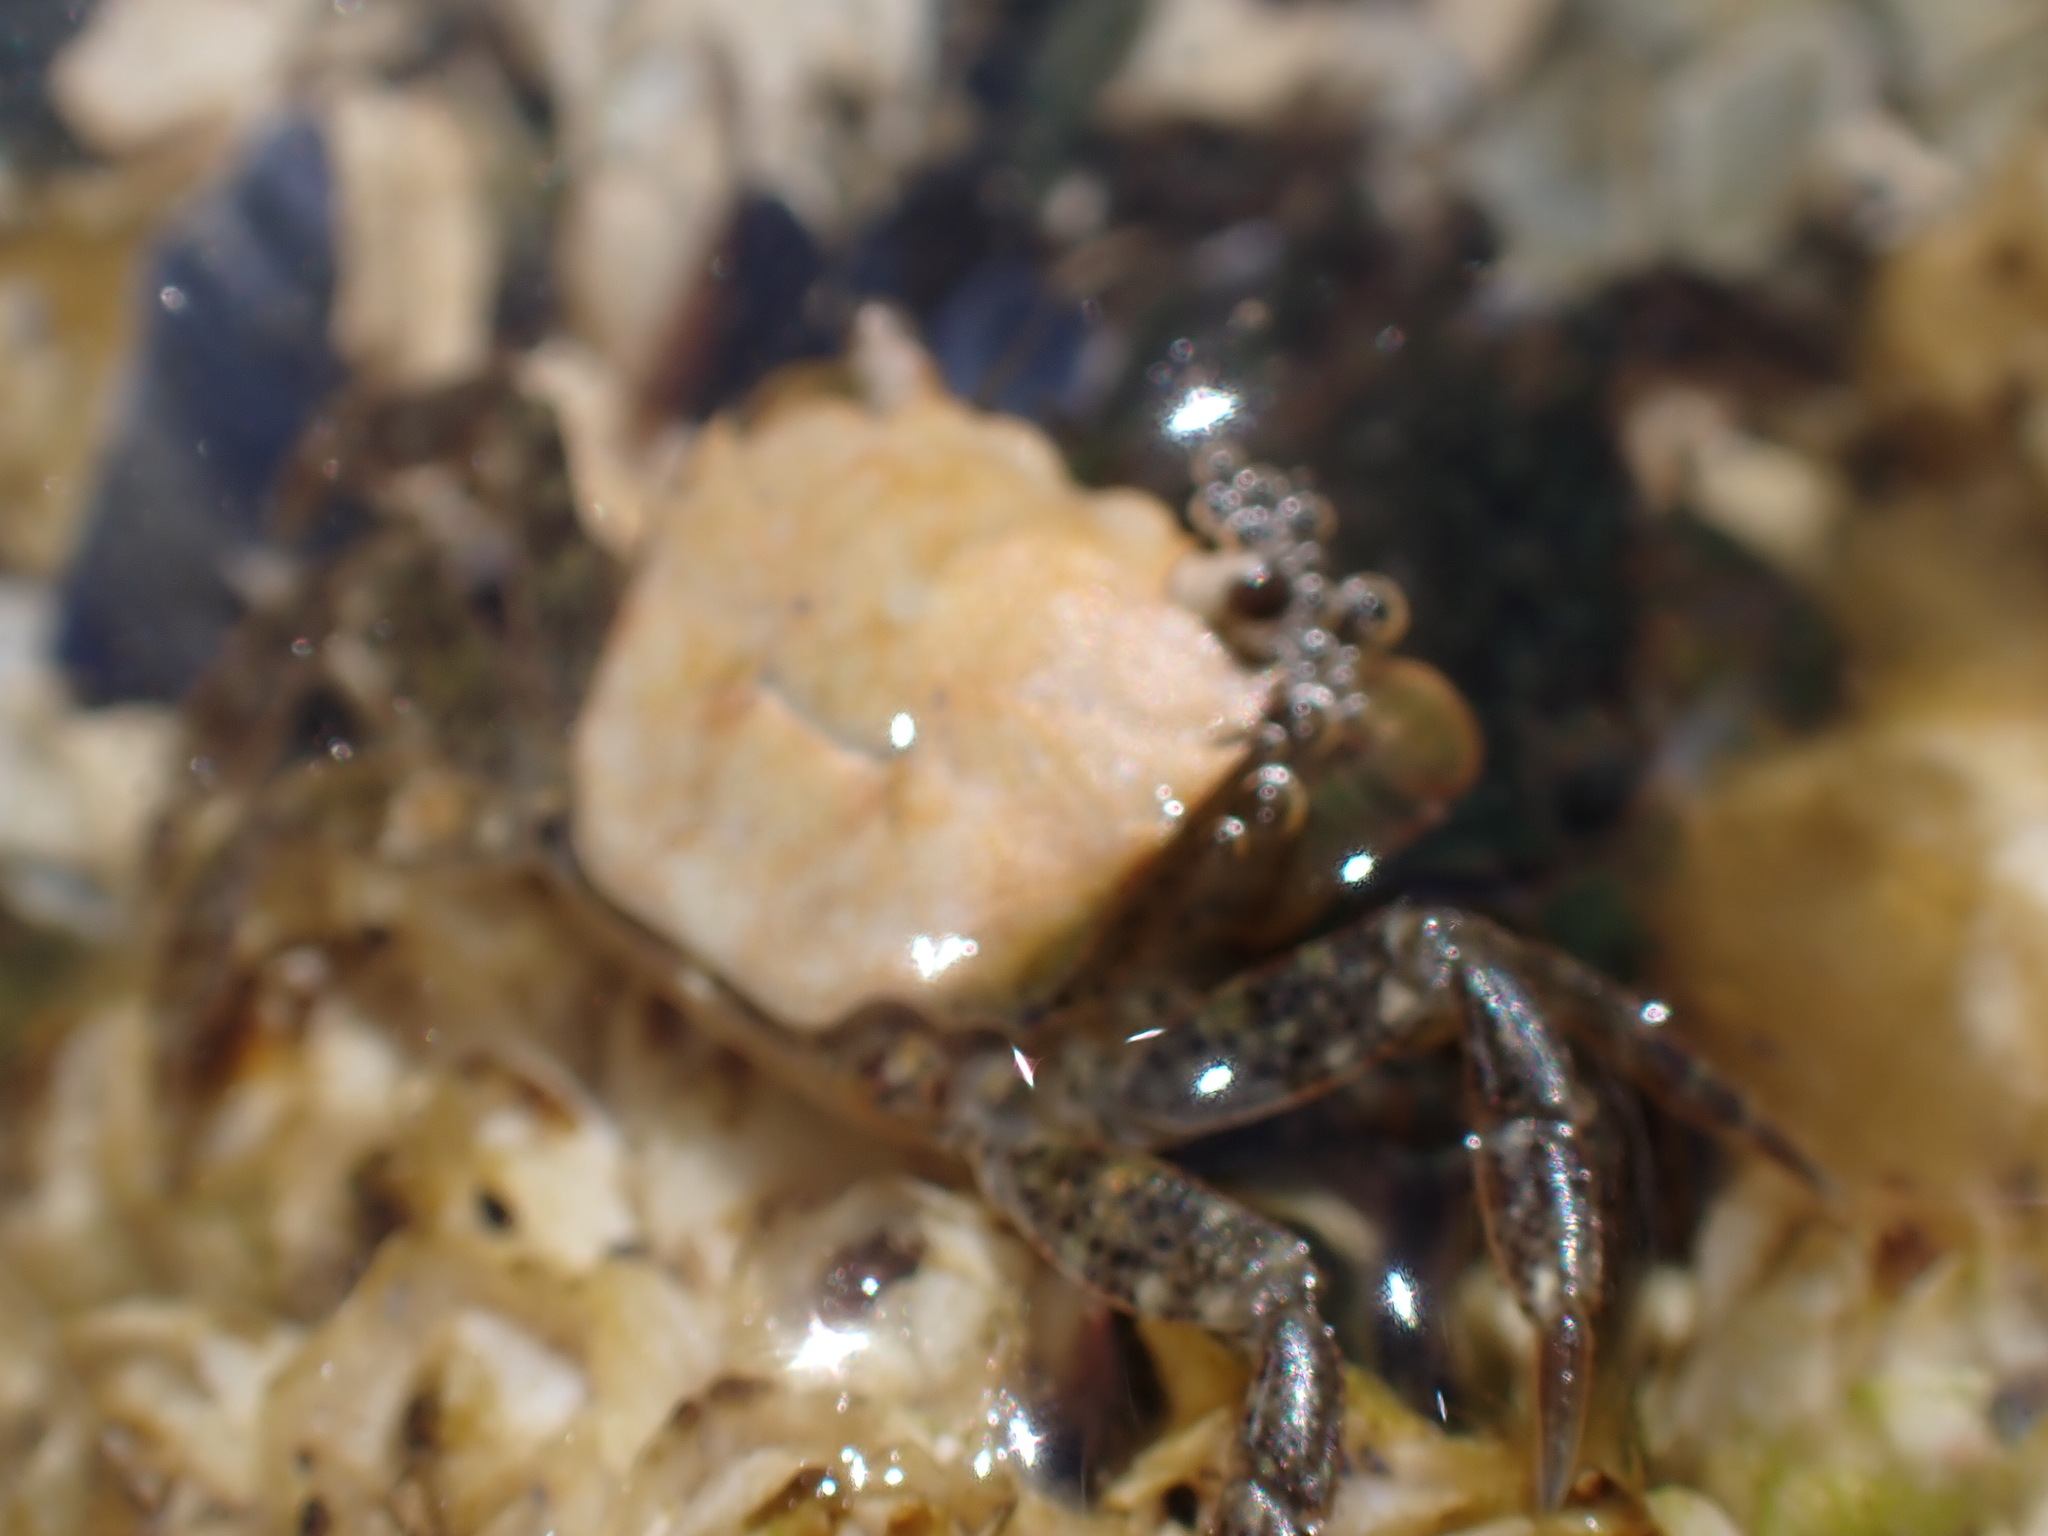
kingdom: Animalia
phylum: Arthropoda
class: Malacostraca
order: Decapoda
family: Varunidae
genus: Hemigrapsus
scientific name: Hemigrapsus oregonensis
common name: Yellow shore crab
